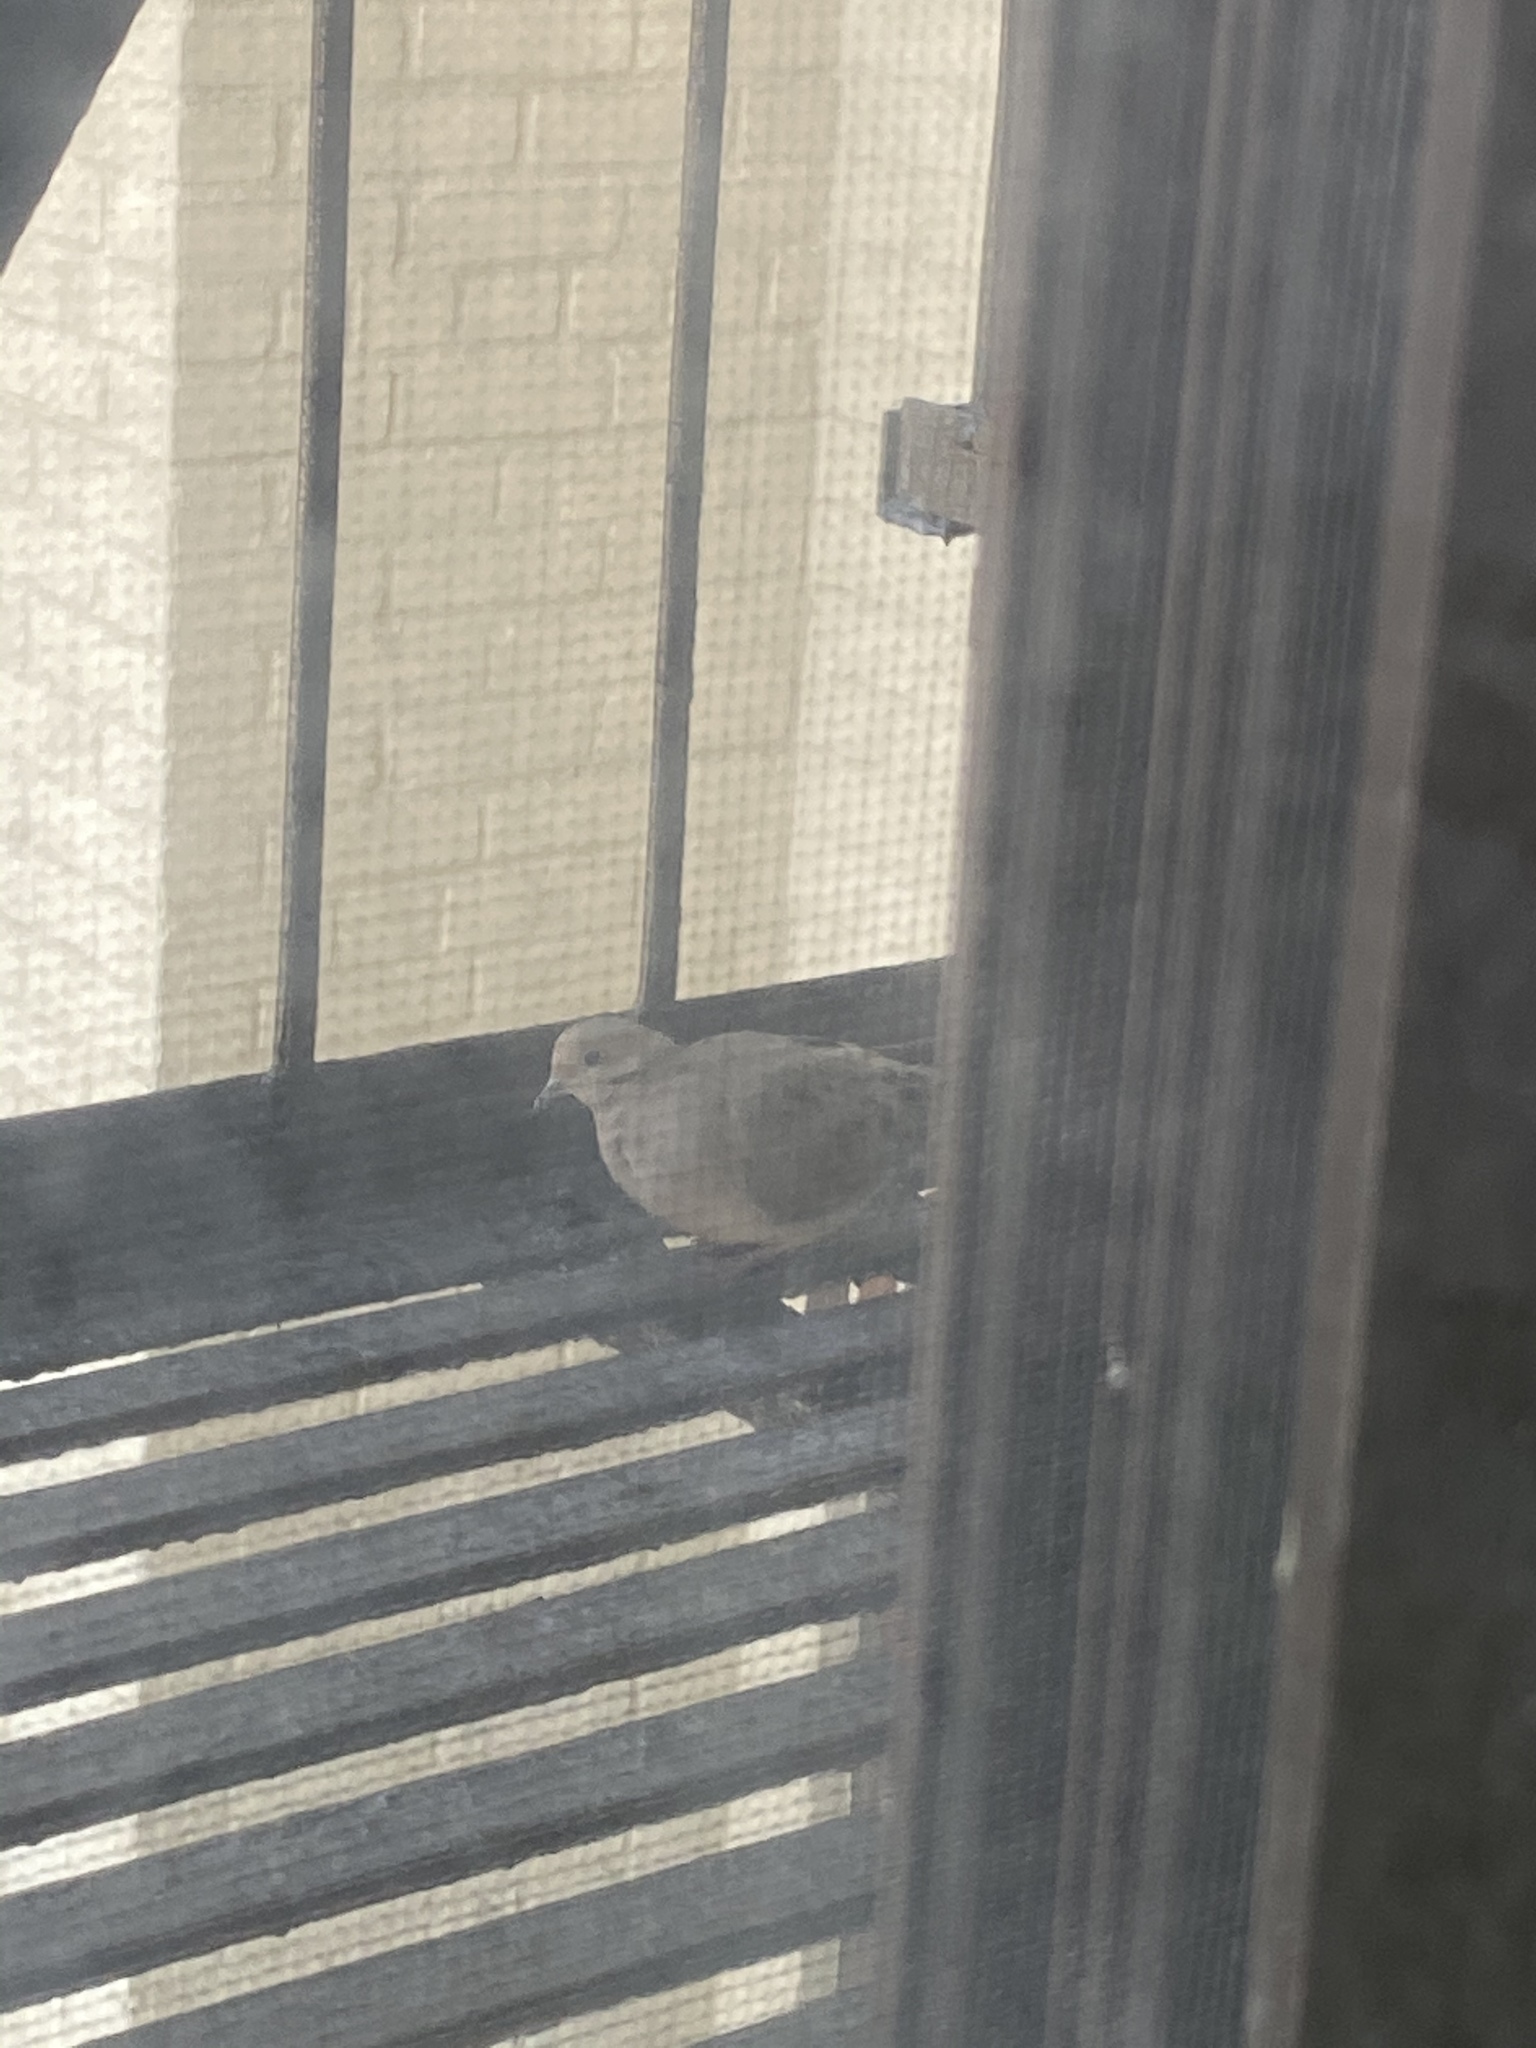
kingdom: Animalia
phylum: Chordata
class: Aves
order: Columbiformes
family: Columbidae
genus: Zenaida
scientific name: Zenaida macroura
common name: Mourning dove
